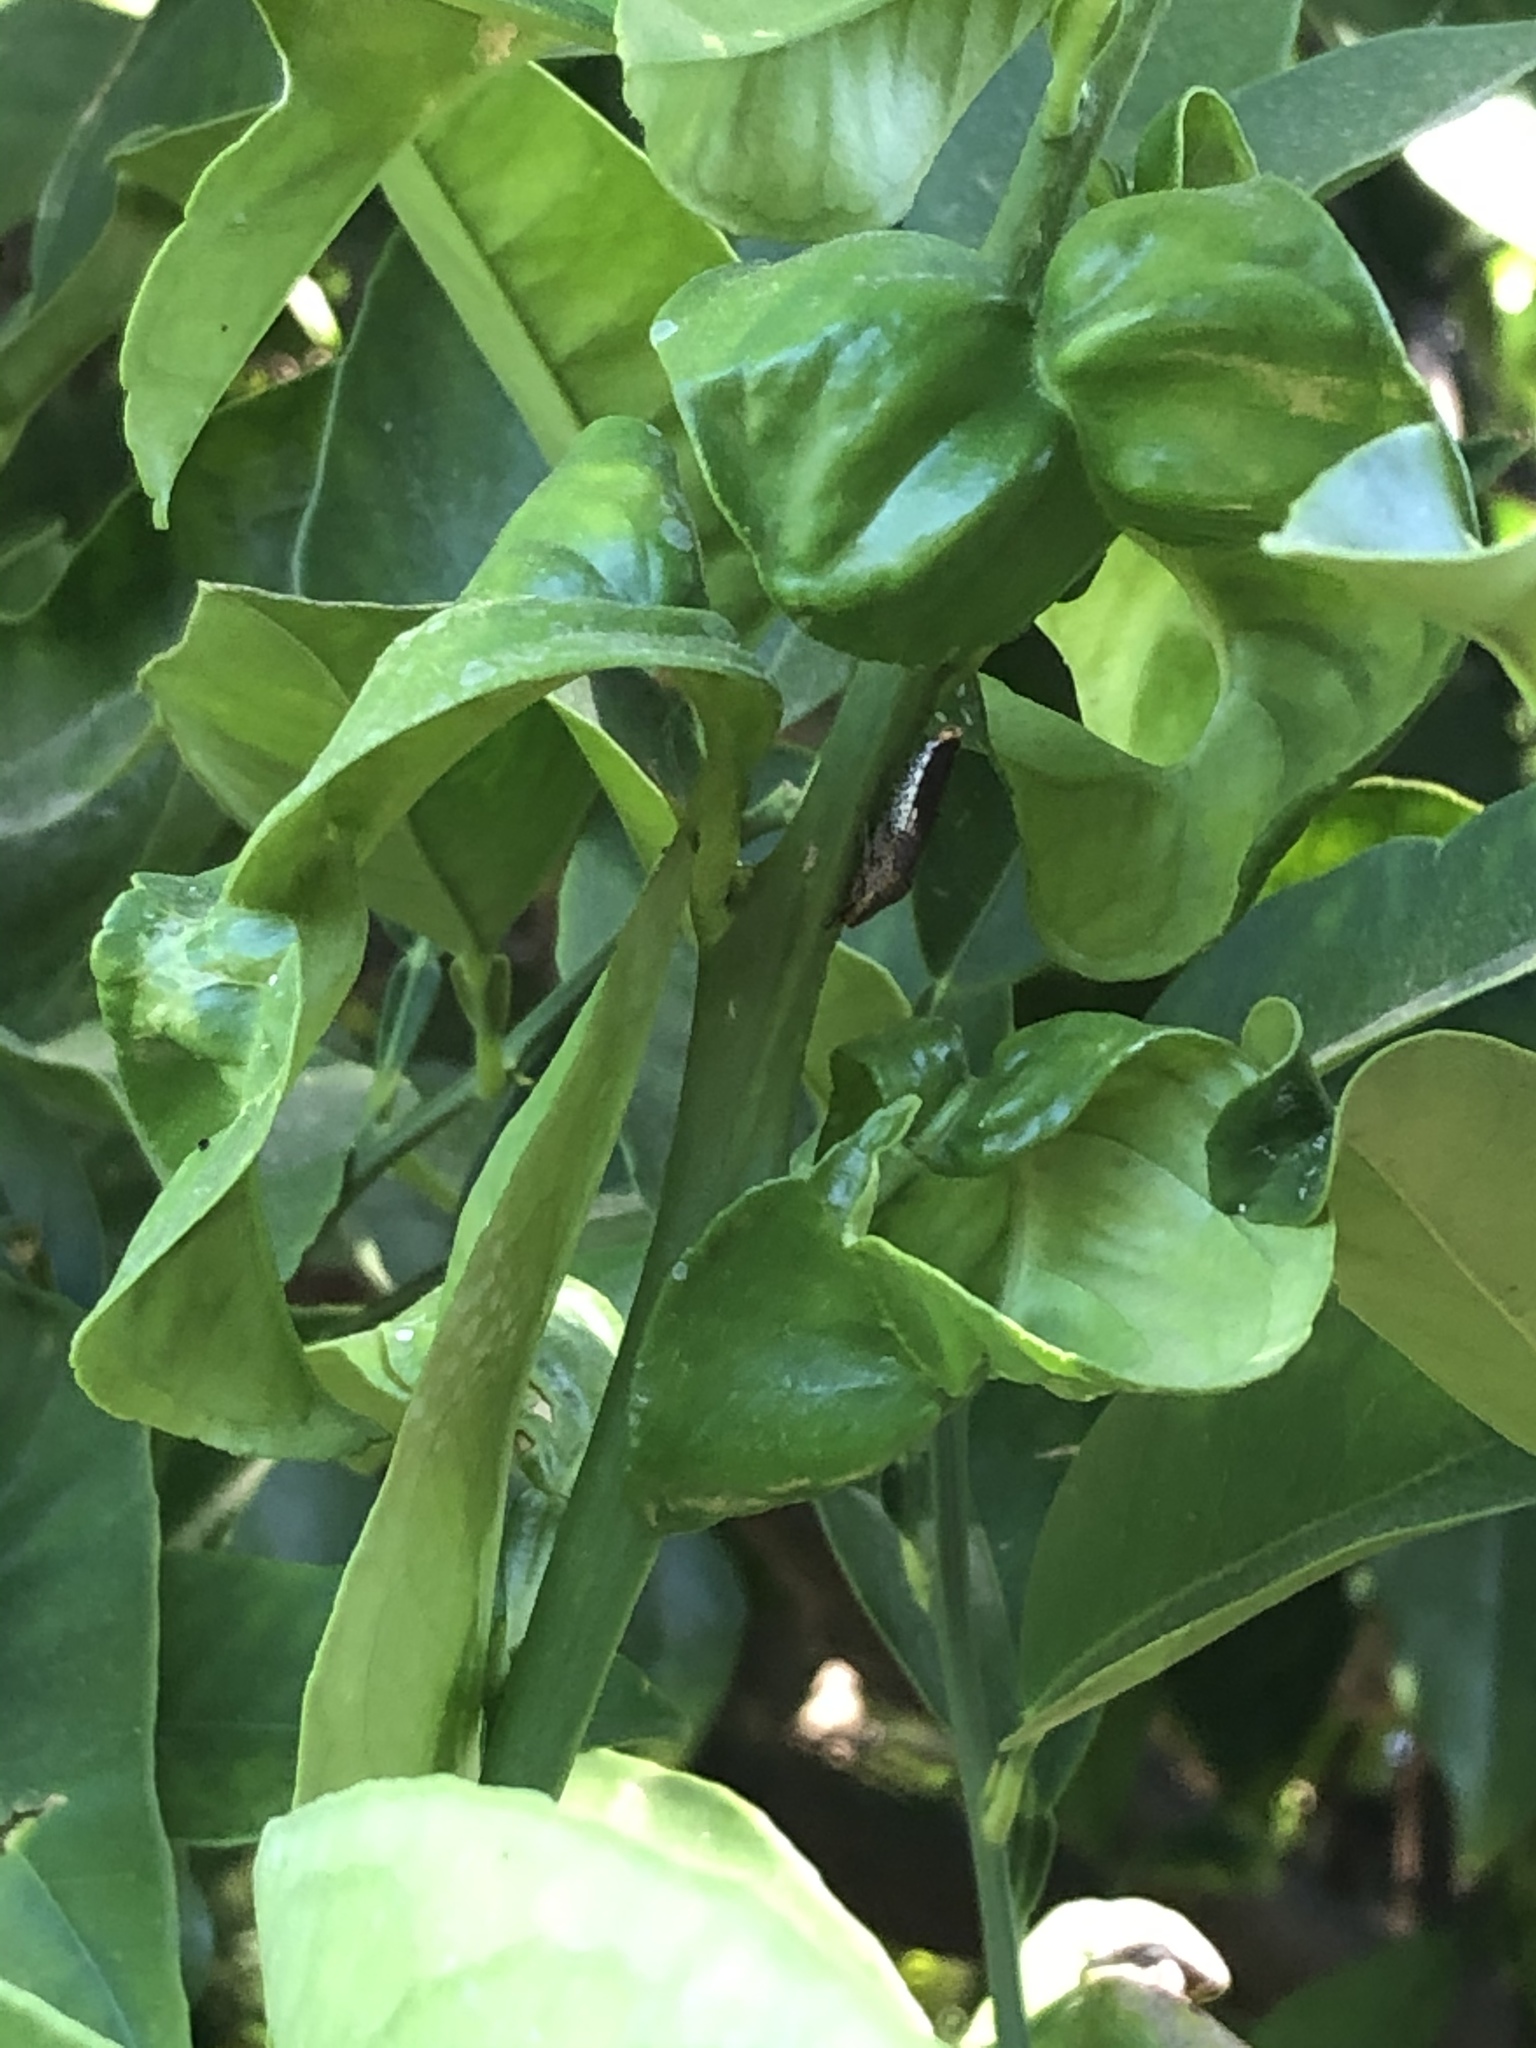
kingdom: Animalia
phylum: Arthropoda
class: Insecta
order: Hemiptera
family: Cicadellidae
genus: Homalodisca
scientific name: Homalodisca vitripennis
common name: Glassy-winged sharpshooter
